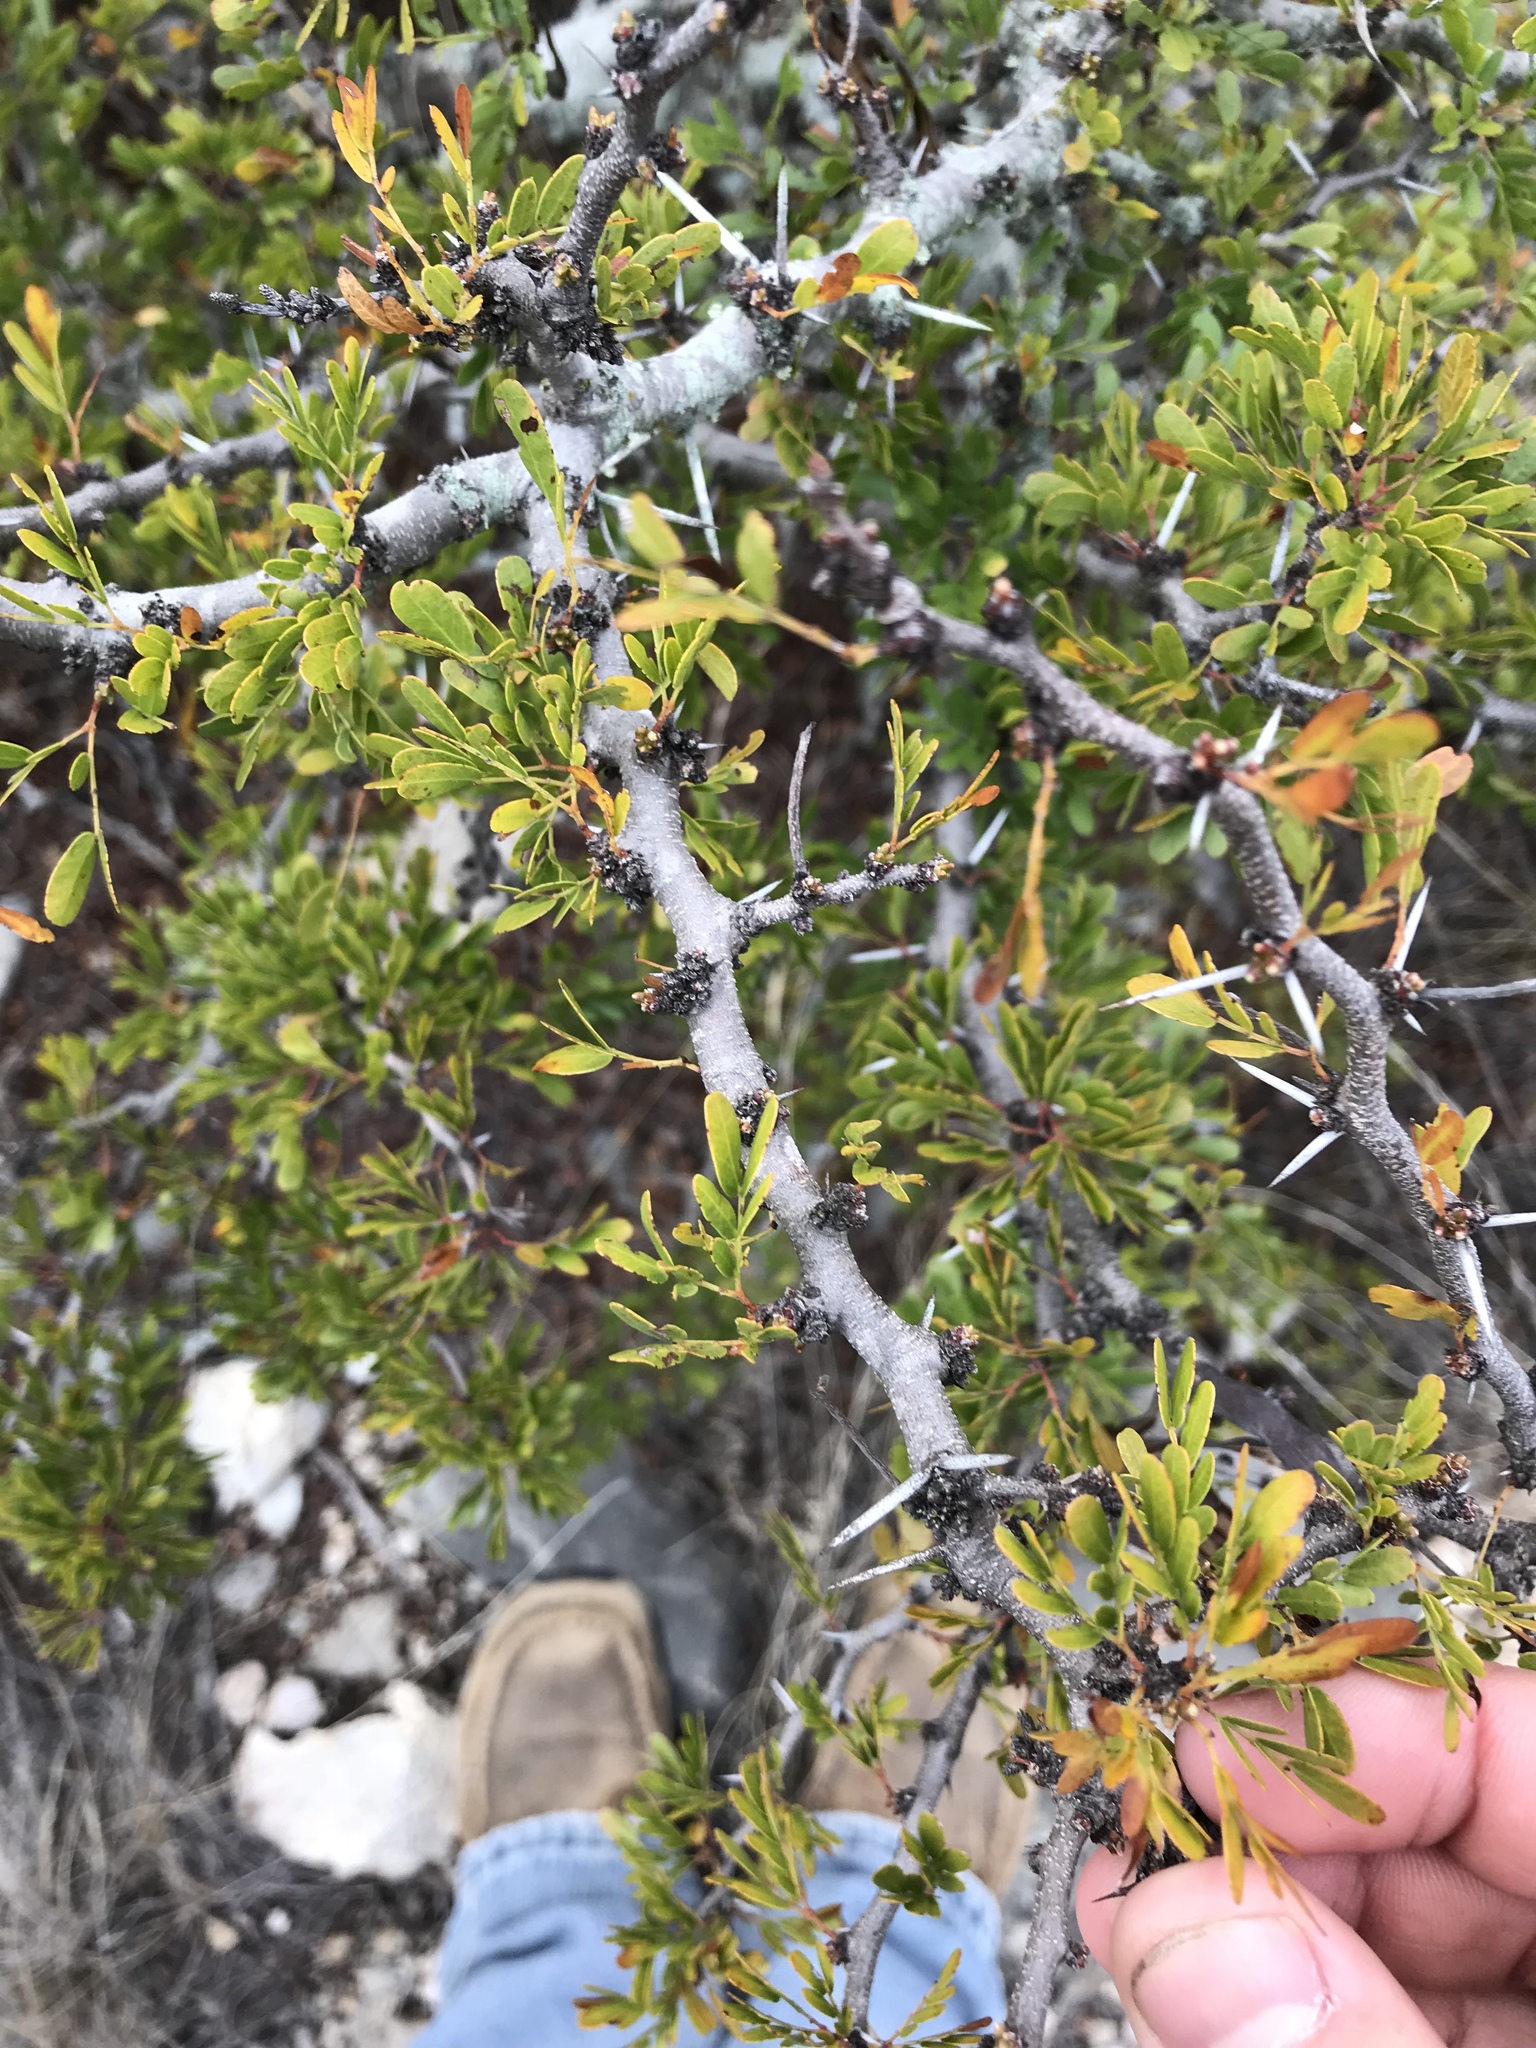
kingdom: Plantae
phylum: Tracheophyta
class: Magnoliopsida
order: Fabales
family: Fabaceae
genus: Vachellia
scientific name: Vachellia rigidula
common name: Blackbrush
